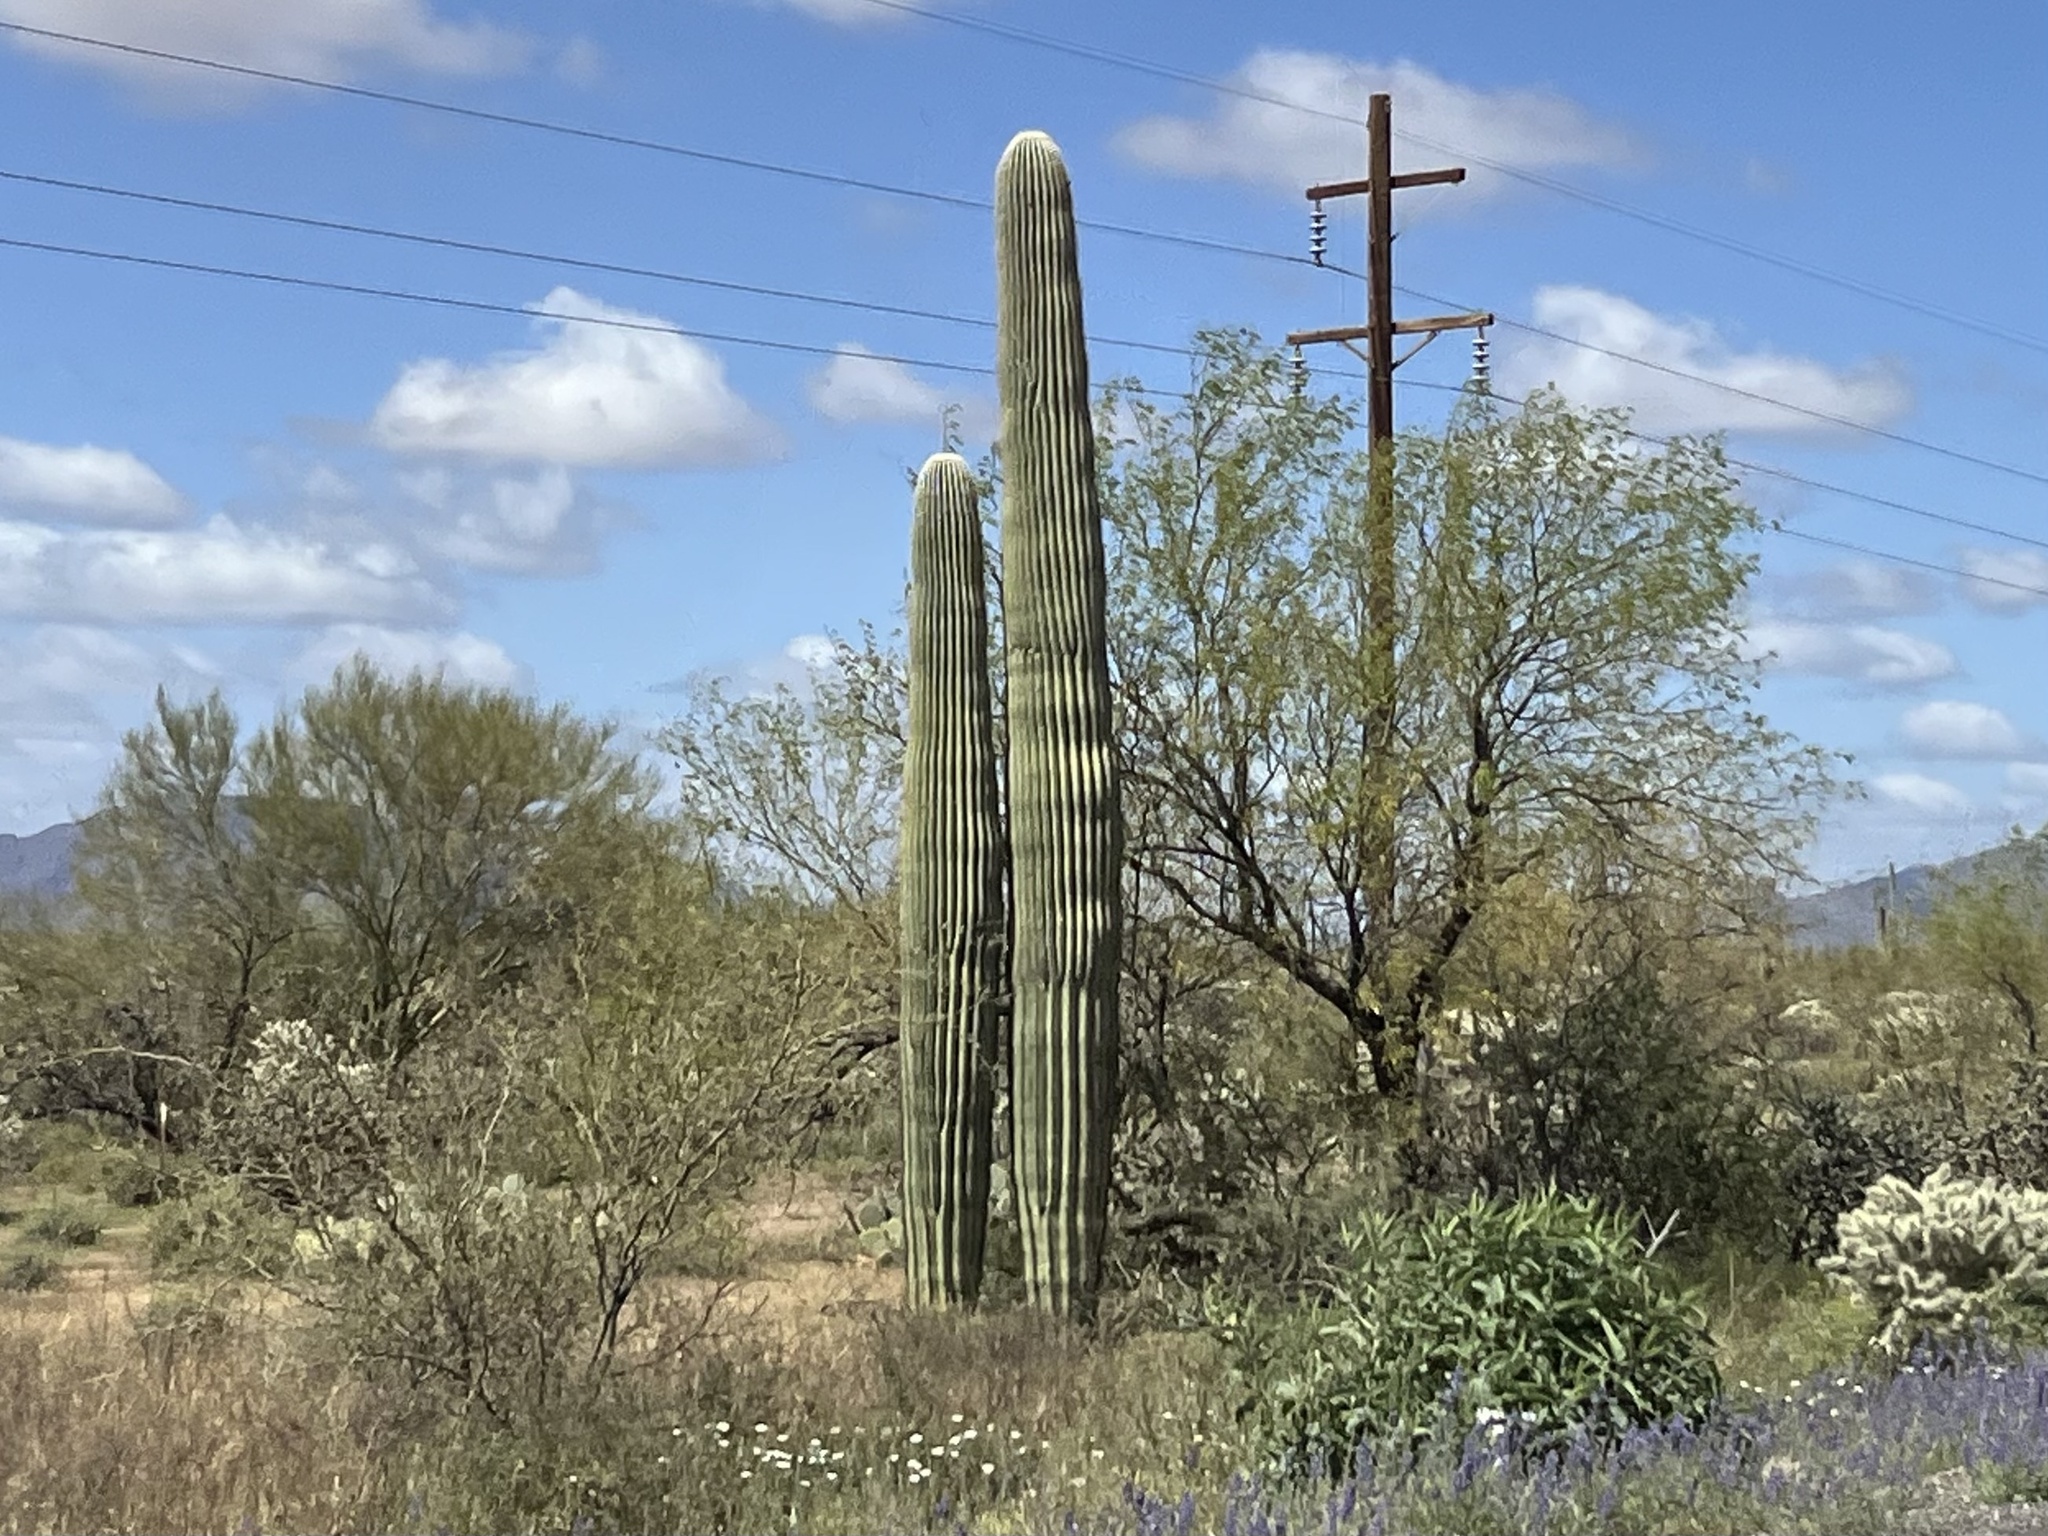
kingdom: Plantae
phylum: Tracheophyta
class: Magnoliopsida
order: Caryophyllales
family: Cactaceae
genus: Carnegiea
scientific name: Carnegiea gigantea
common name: Saguaro
